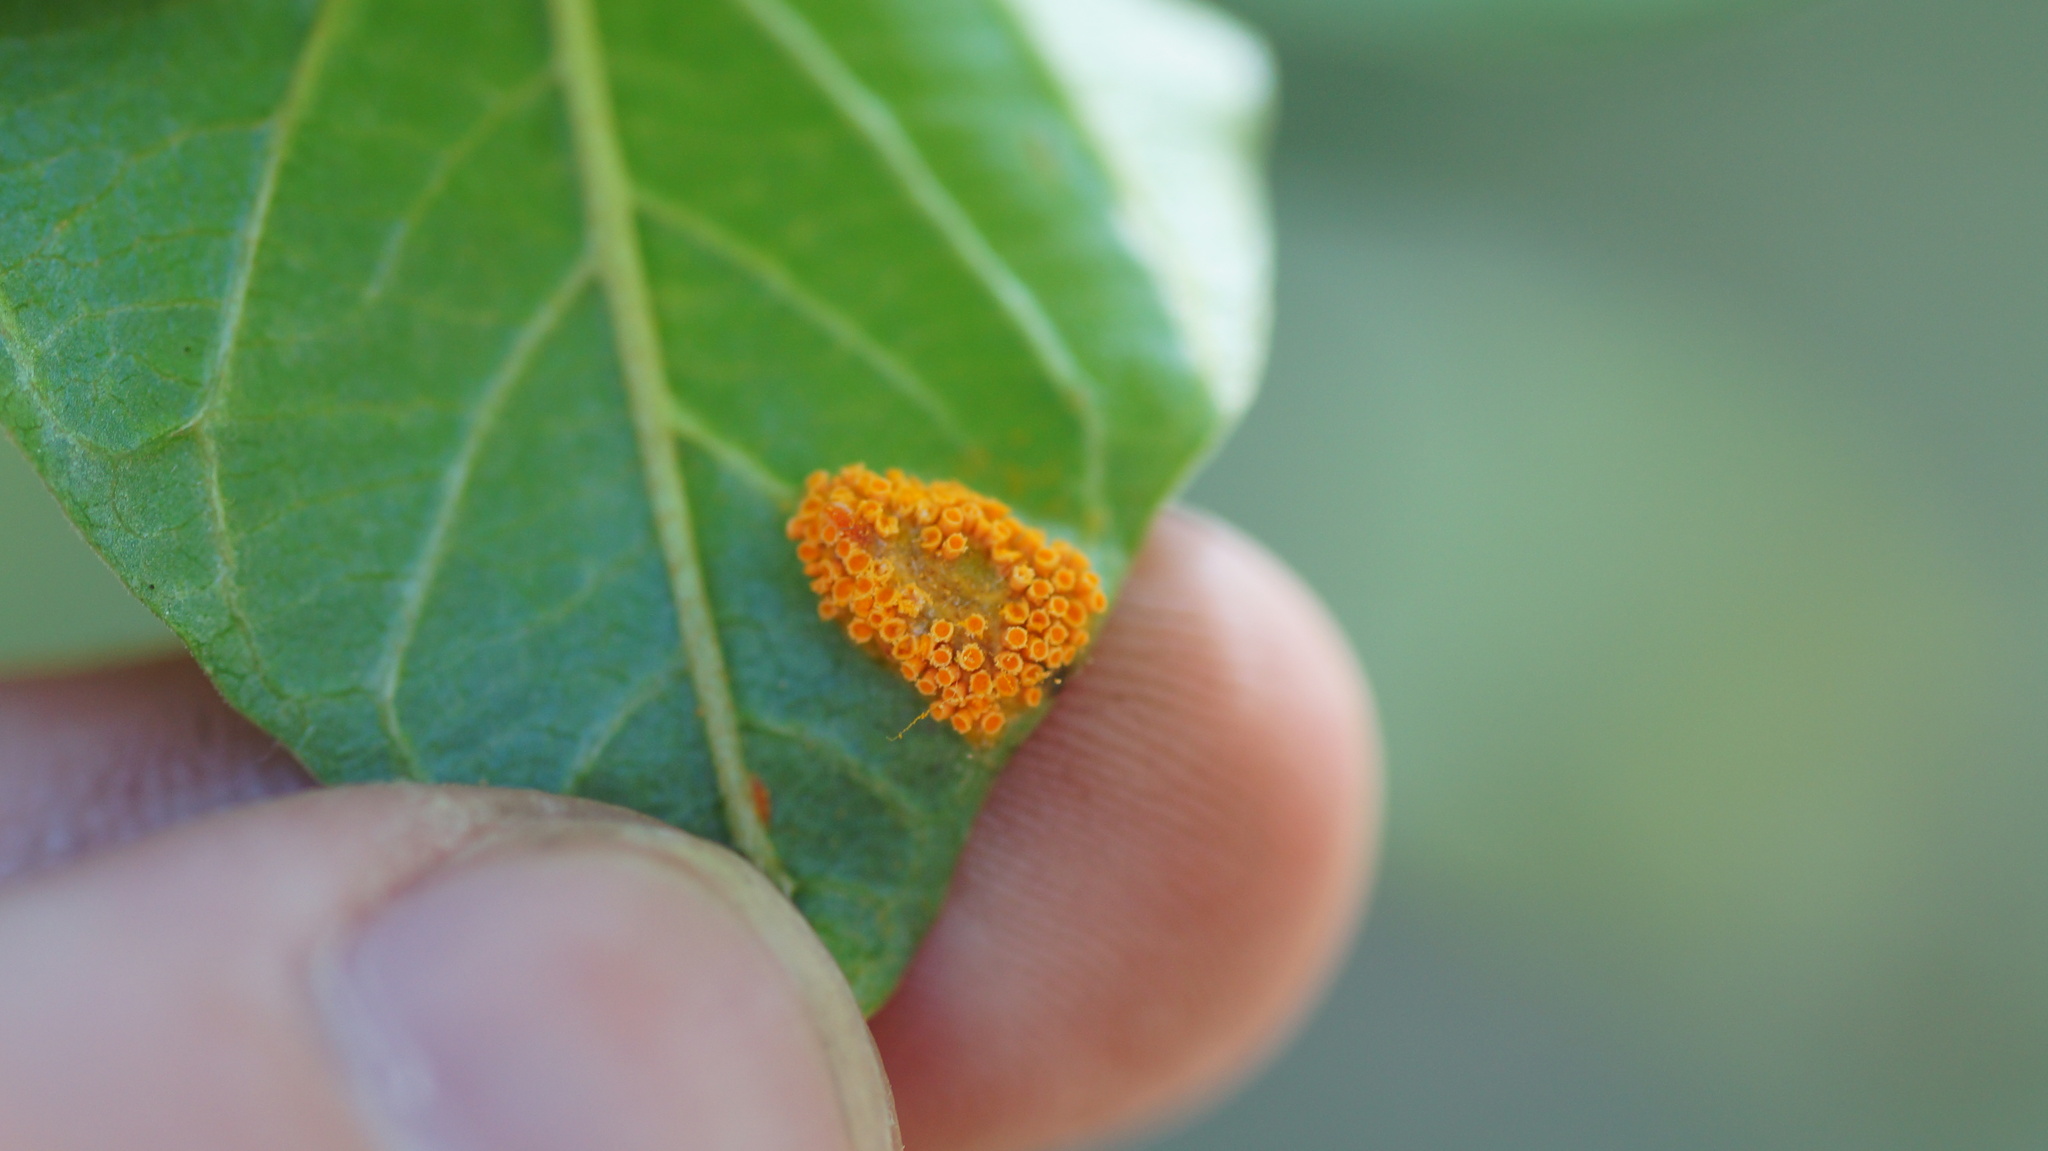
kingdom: Fungi
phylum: Basidiomycota
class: Pucciniomycetes
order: Pucciniales
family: Pucciniaceae
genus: Puccinia
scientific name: Puccinia coronata
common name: Crown rust
